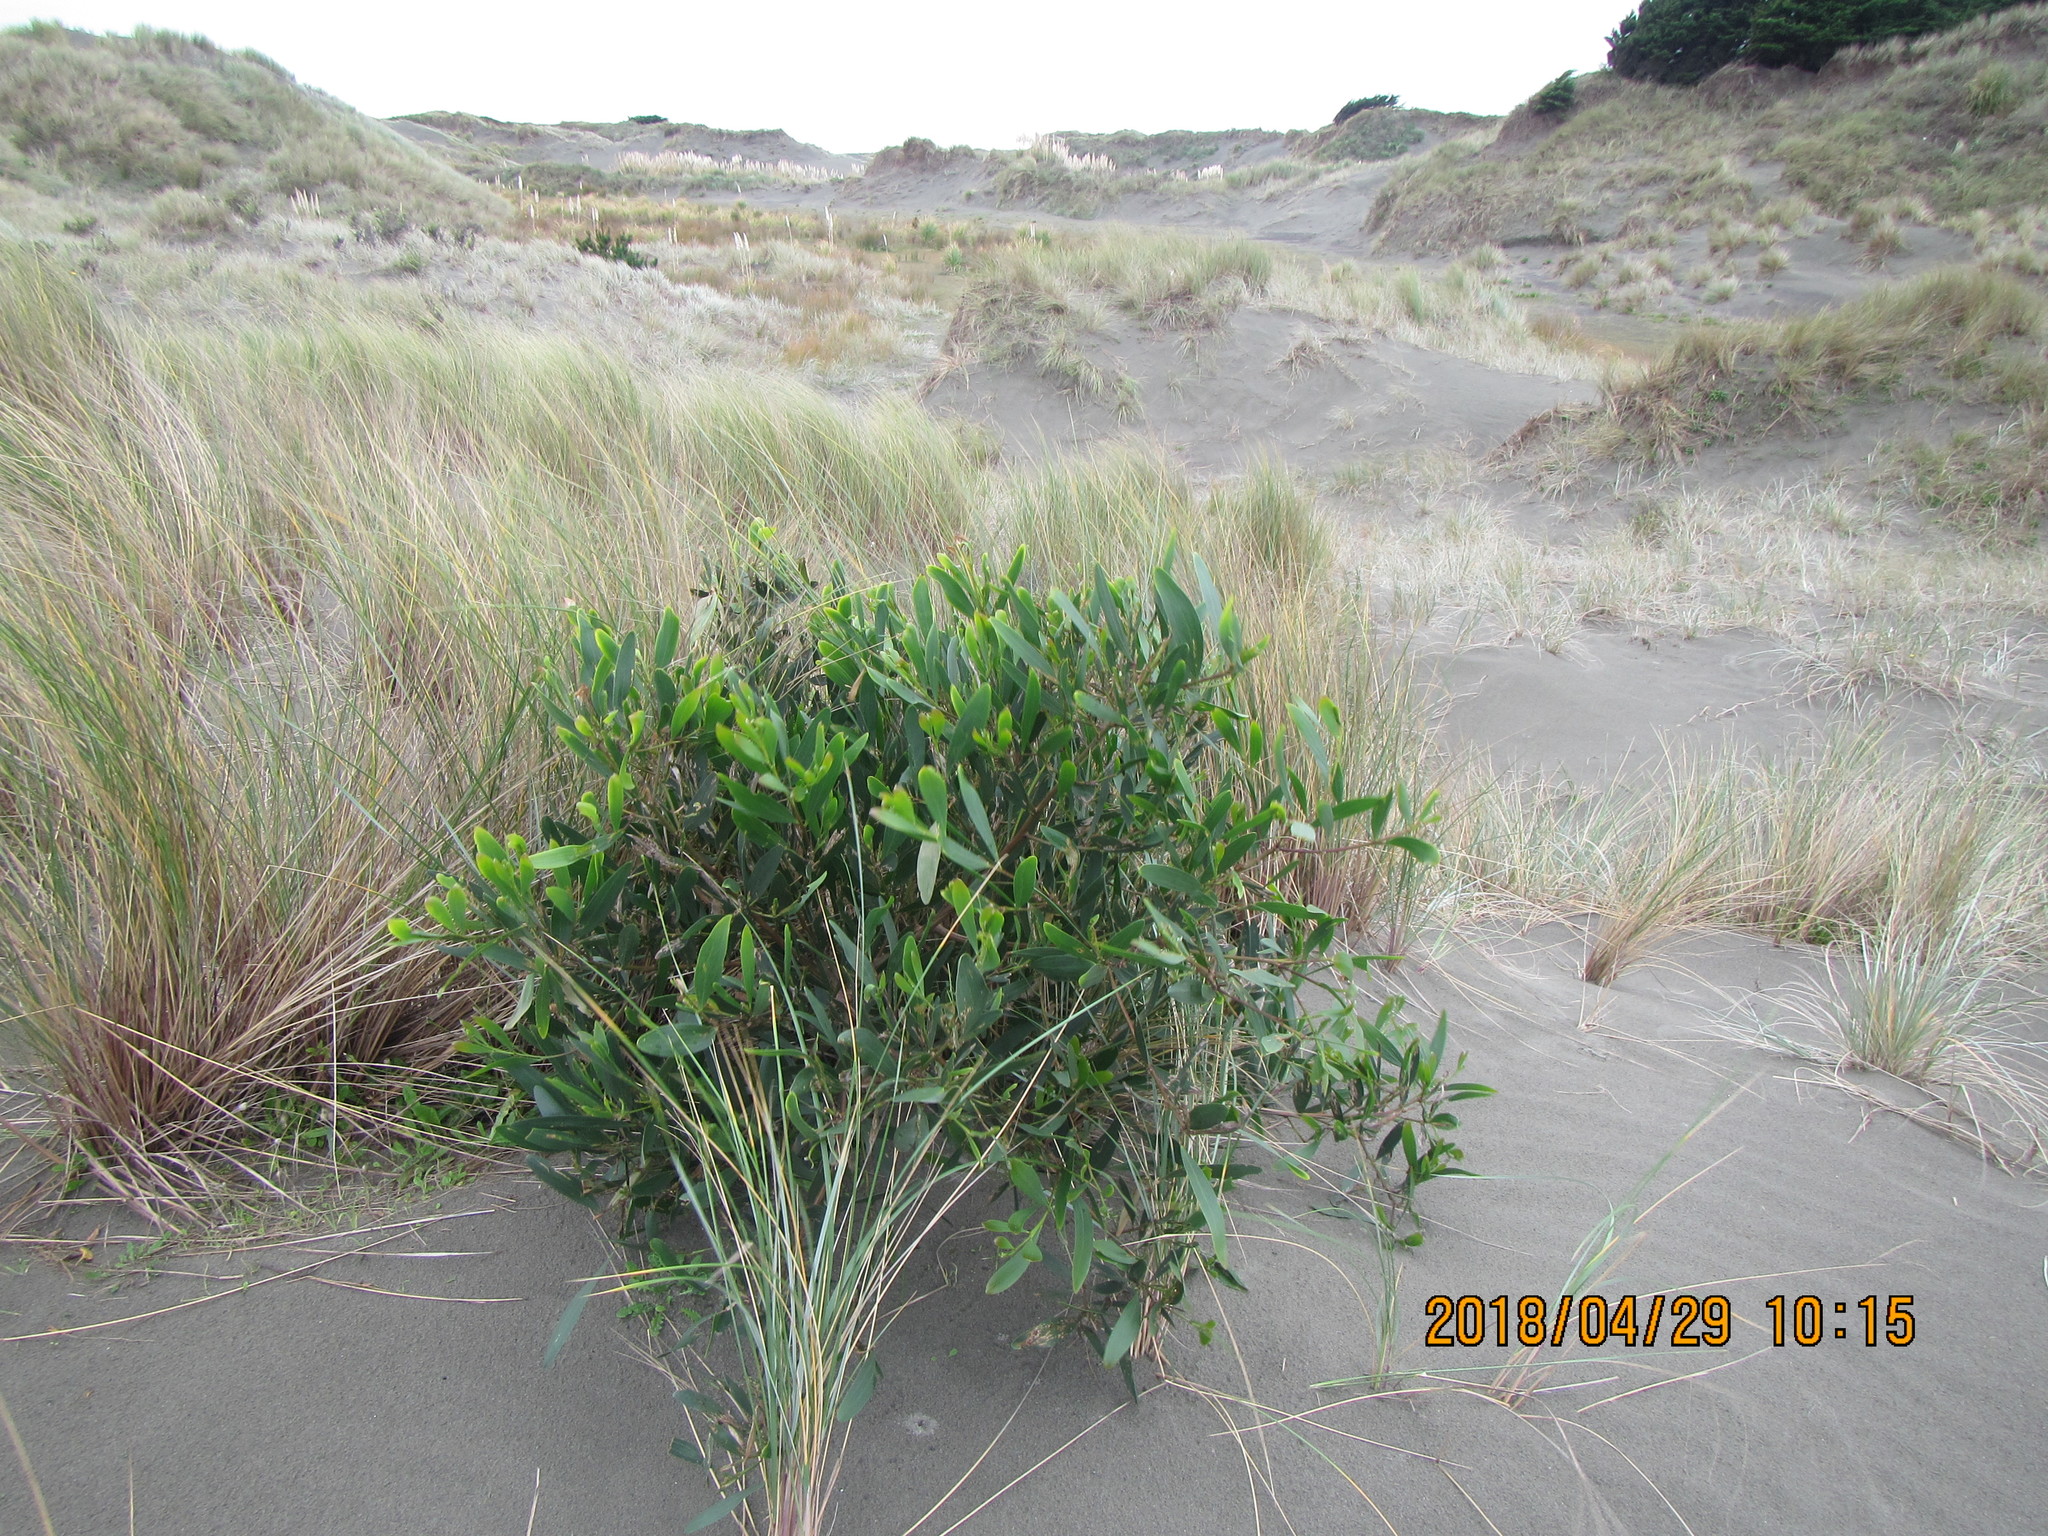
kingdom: Plantae
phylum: Tracheophyta
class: Magnoliopsida
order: Fabales
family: Fabaceae
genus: Acacia
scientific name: Acacia longifolia
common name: Sydney golden wattle
